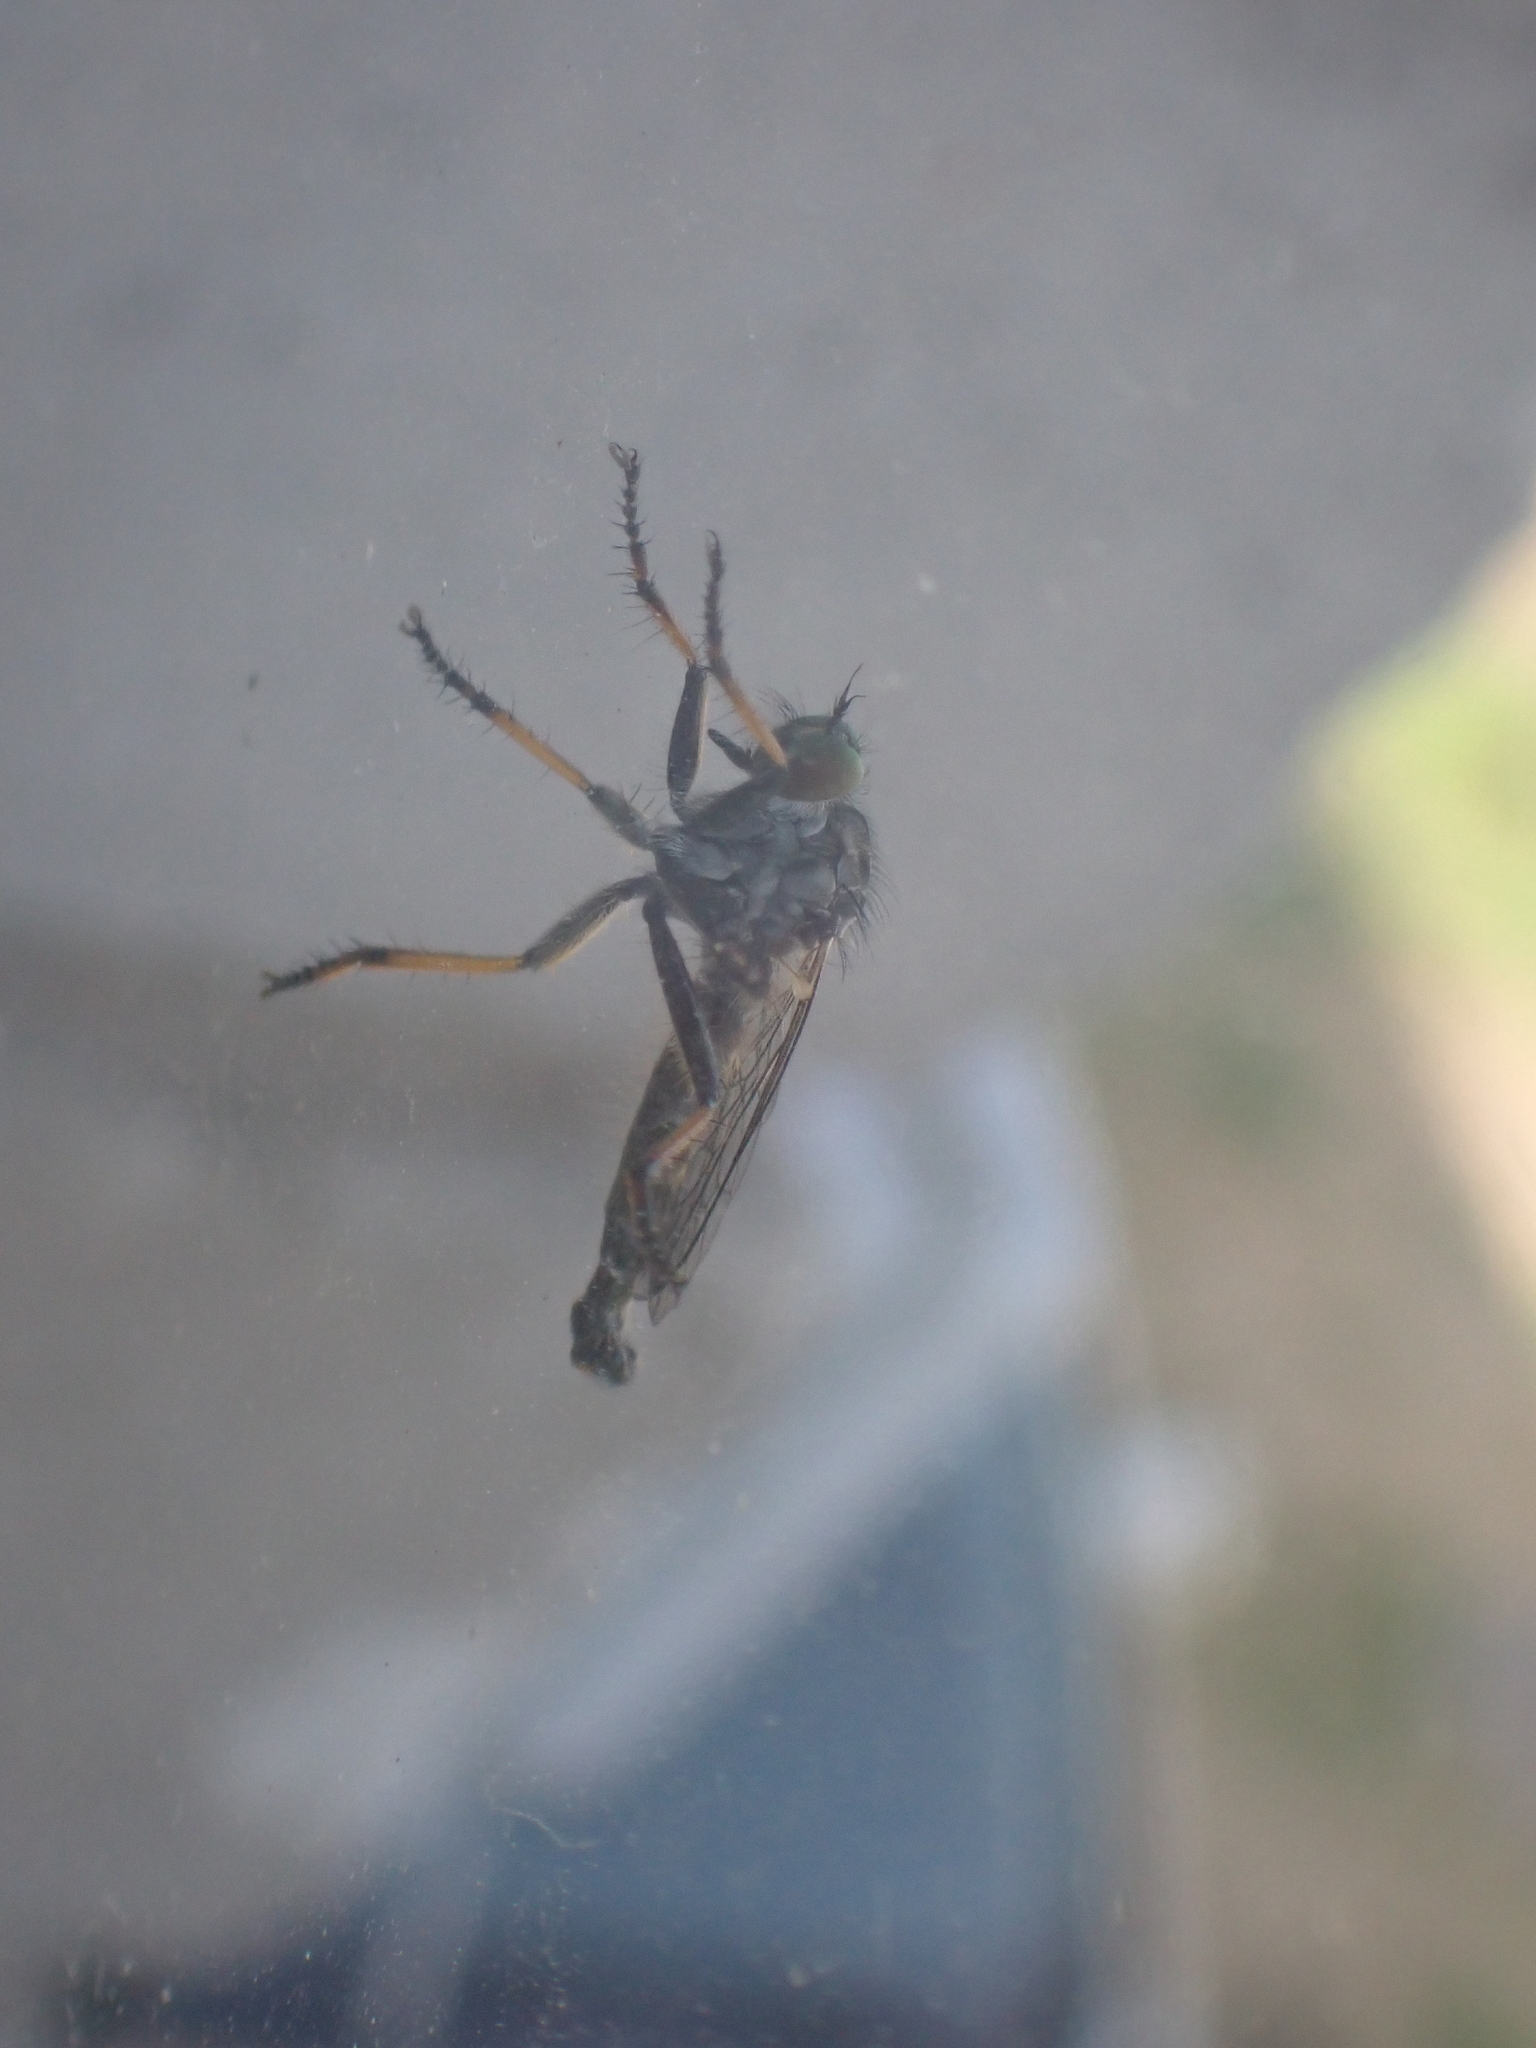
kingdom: Animalia
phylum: Arthropoda
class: Insecta
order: Diptera
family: Asilidae
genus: Neoitamus
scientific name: Neoitamus
